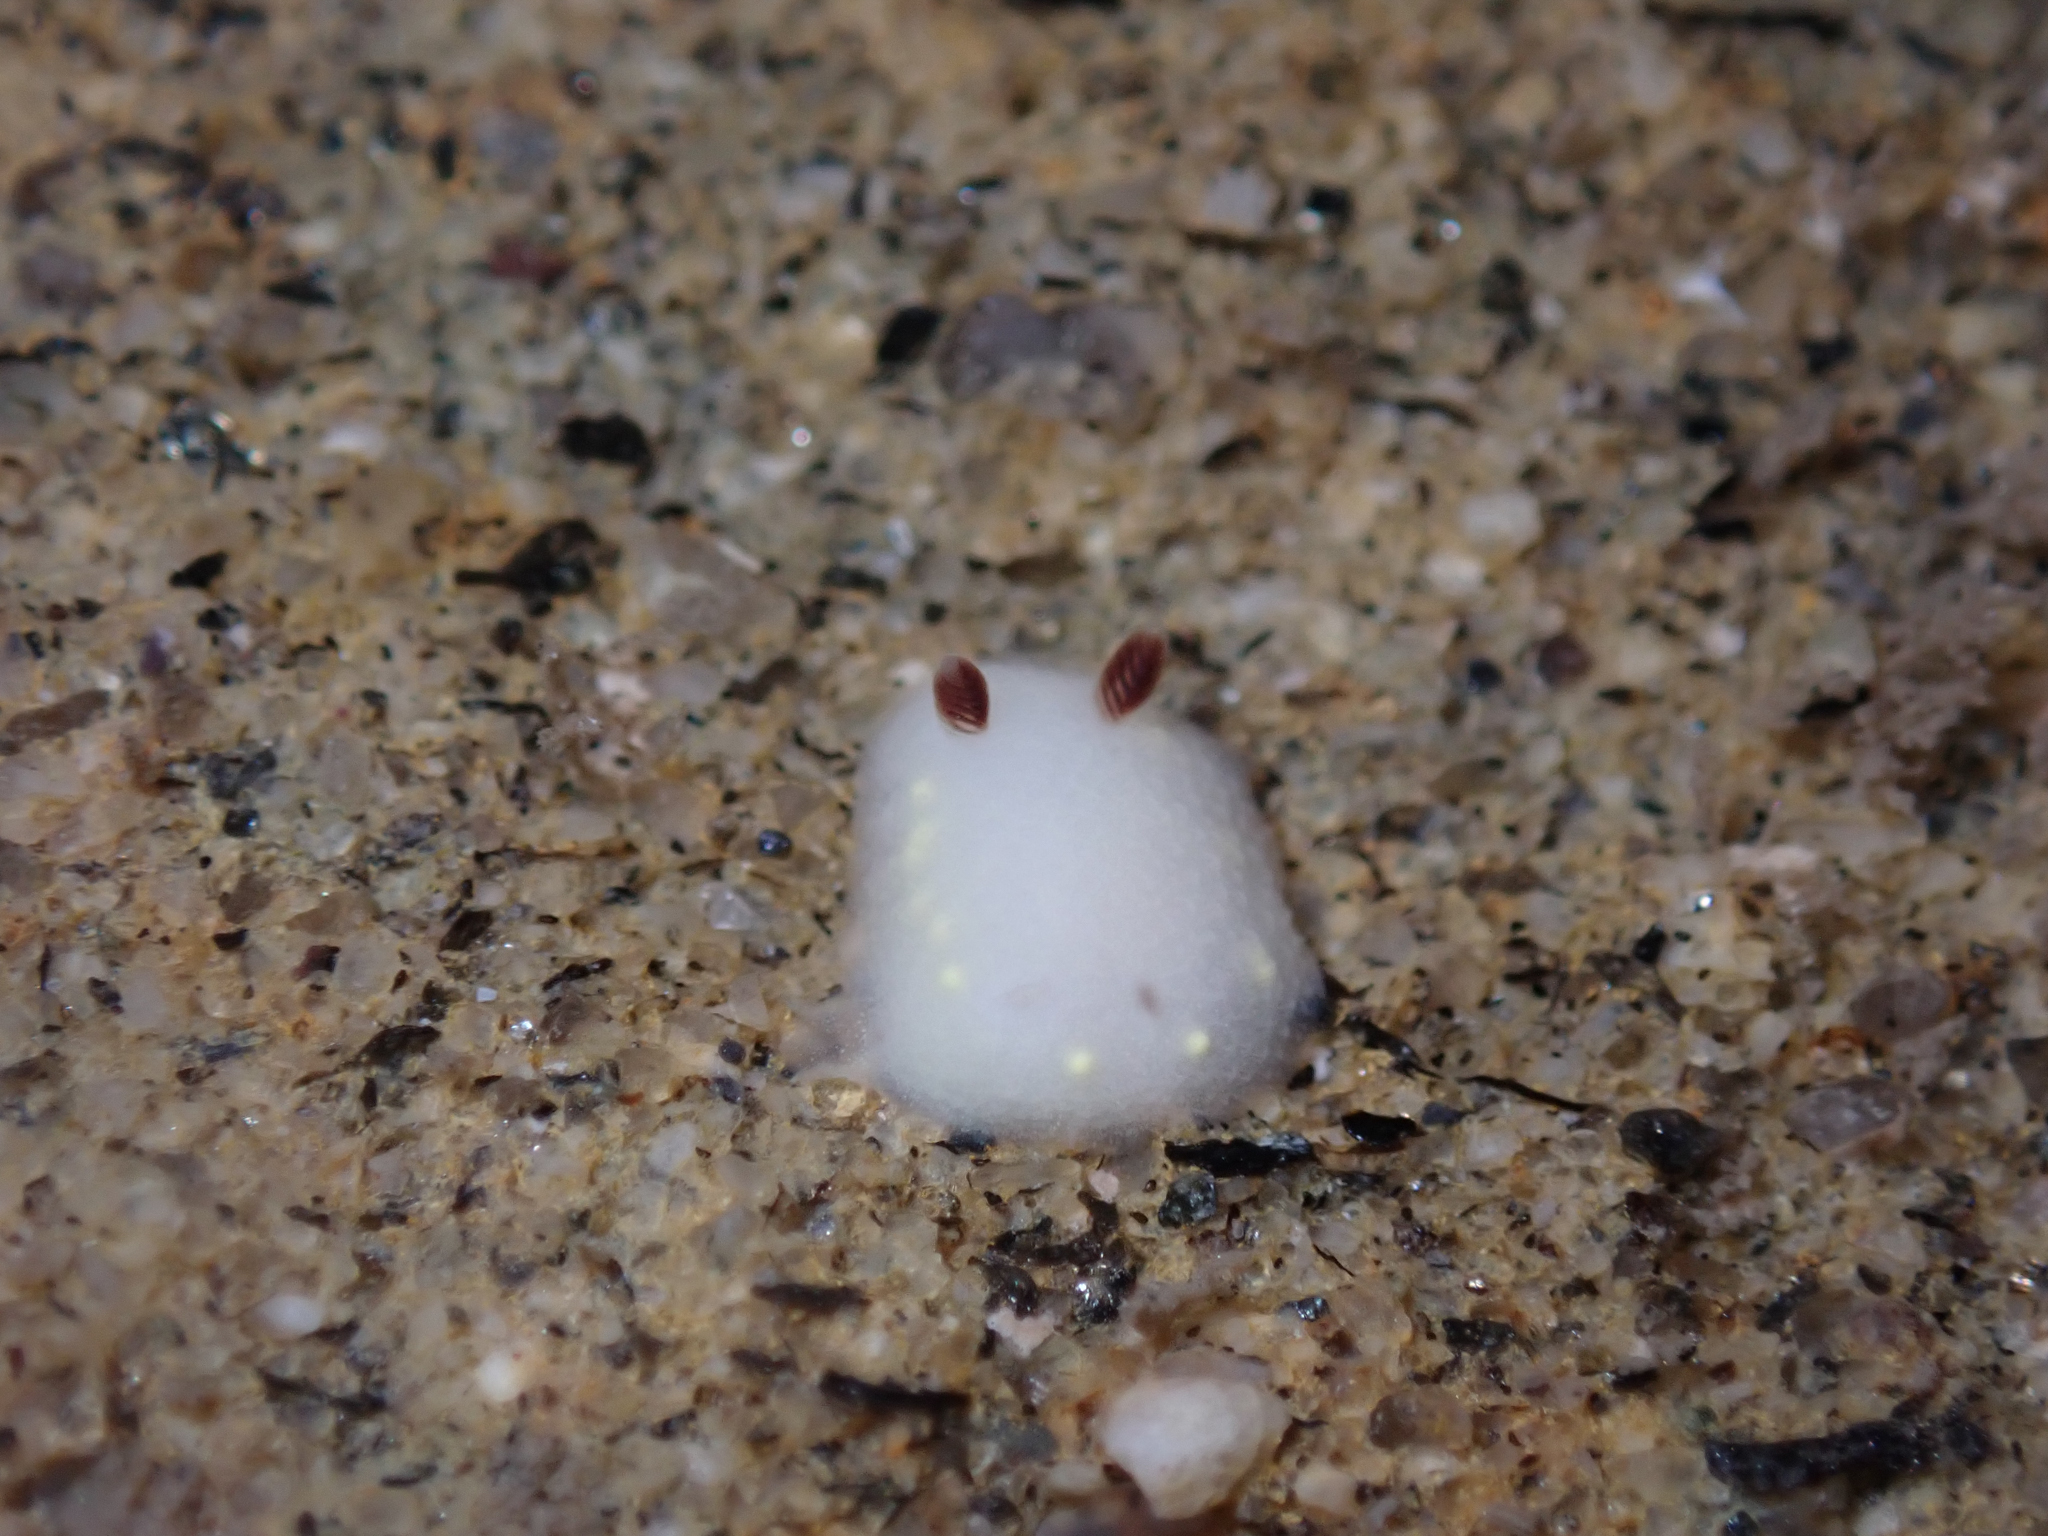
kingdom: Animalia
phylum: Mollusca
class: Gastropoda
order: Nudibranchia
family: Cadlinidae
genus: Cadlina
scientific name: Cadlina flavomaculata
